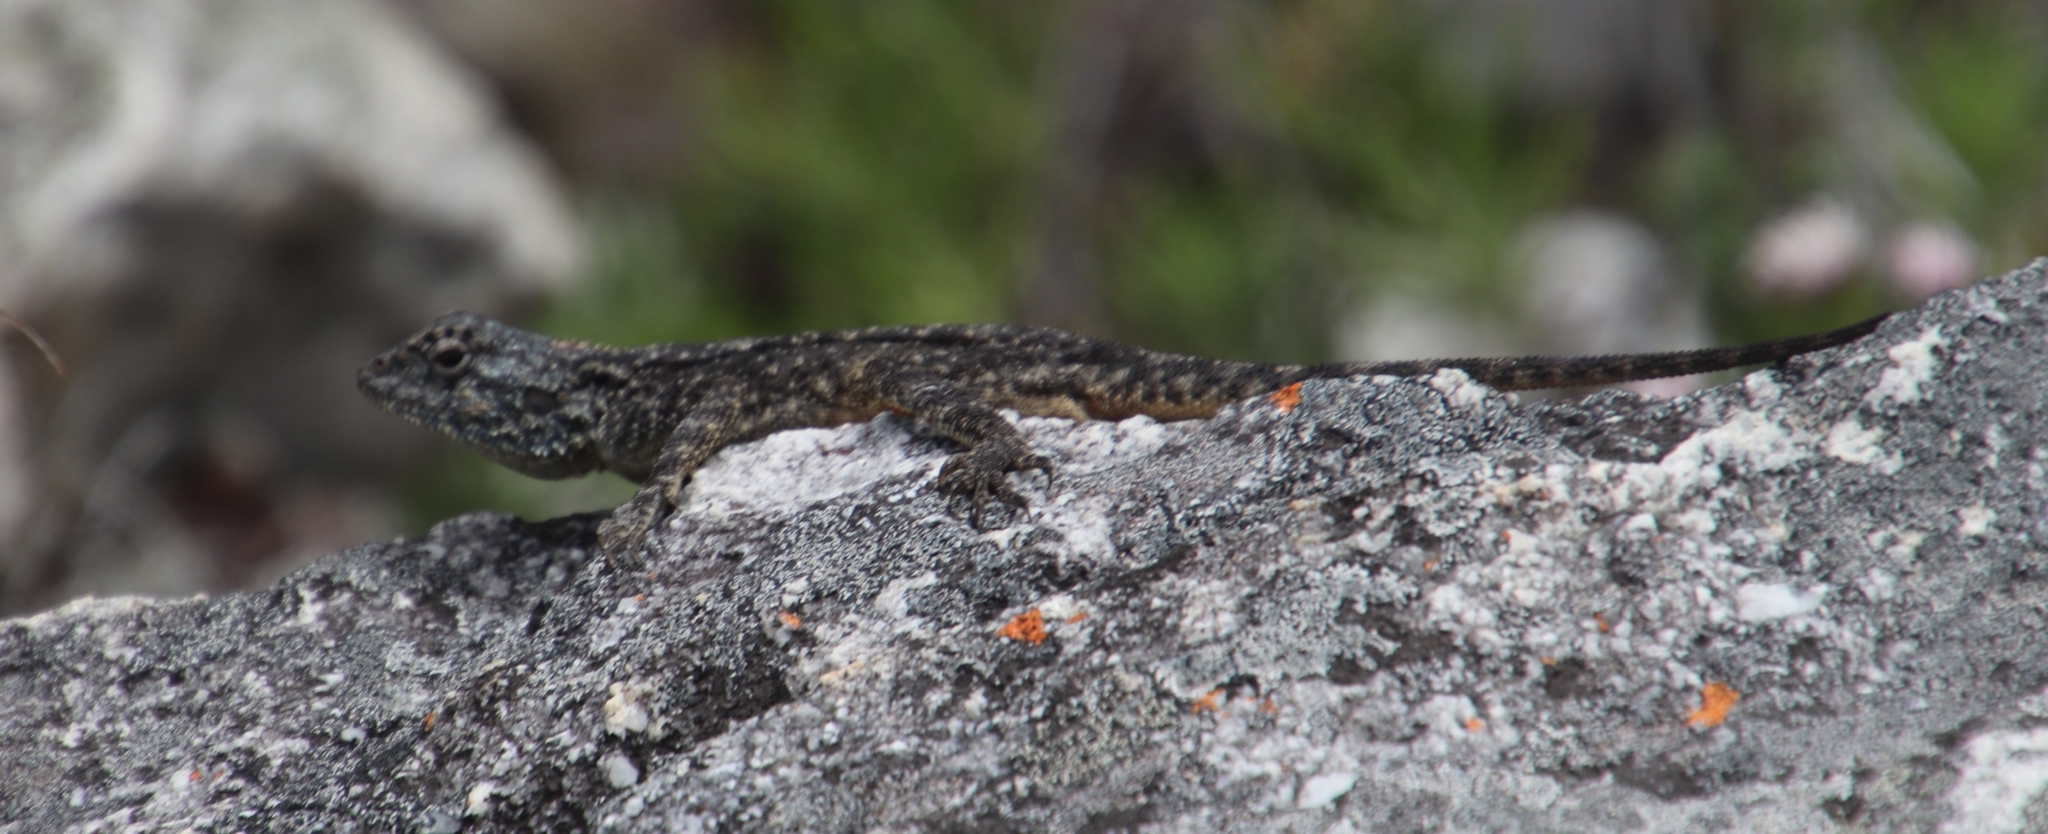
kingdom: Animalia
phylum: Chordata
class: Squamata
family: Agamidae
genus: Agama
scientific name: Agama atra
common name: Southern african rock agama
